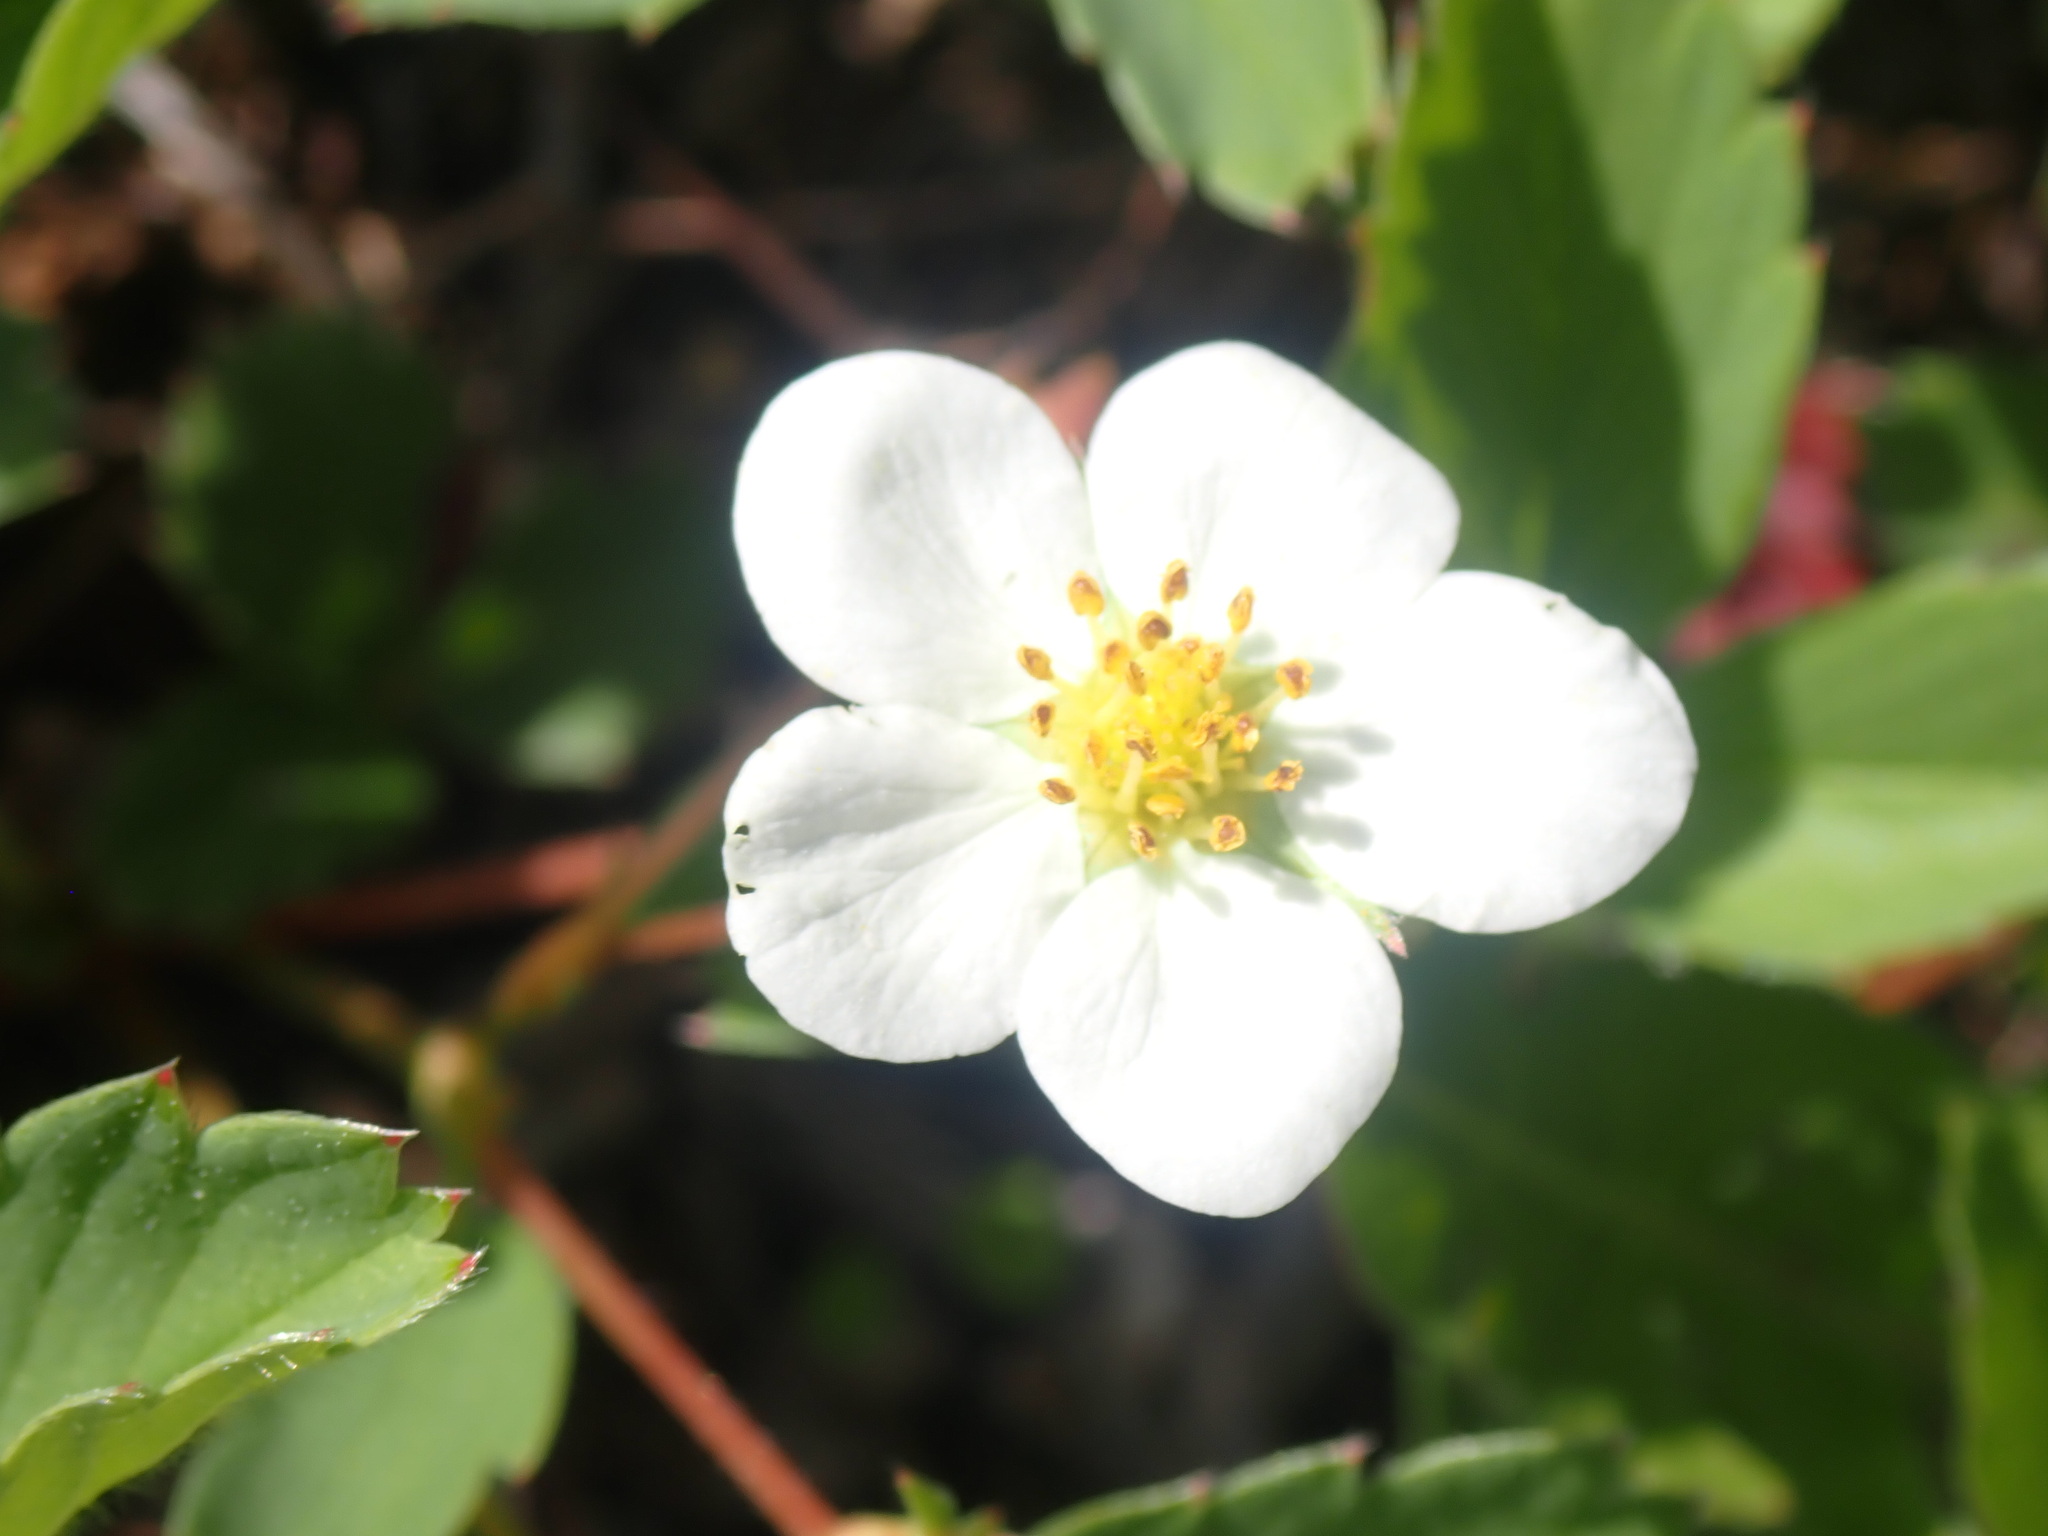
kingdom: Plantae
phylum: Tracheophyta
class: Magnoliopsida
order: Rosales
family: Rosaceae
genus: Fragaria
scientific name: Fragaria virginiana
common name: Thickleaved wild strawberry
